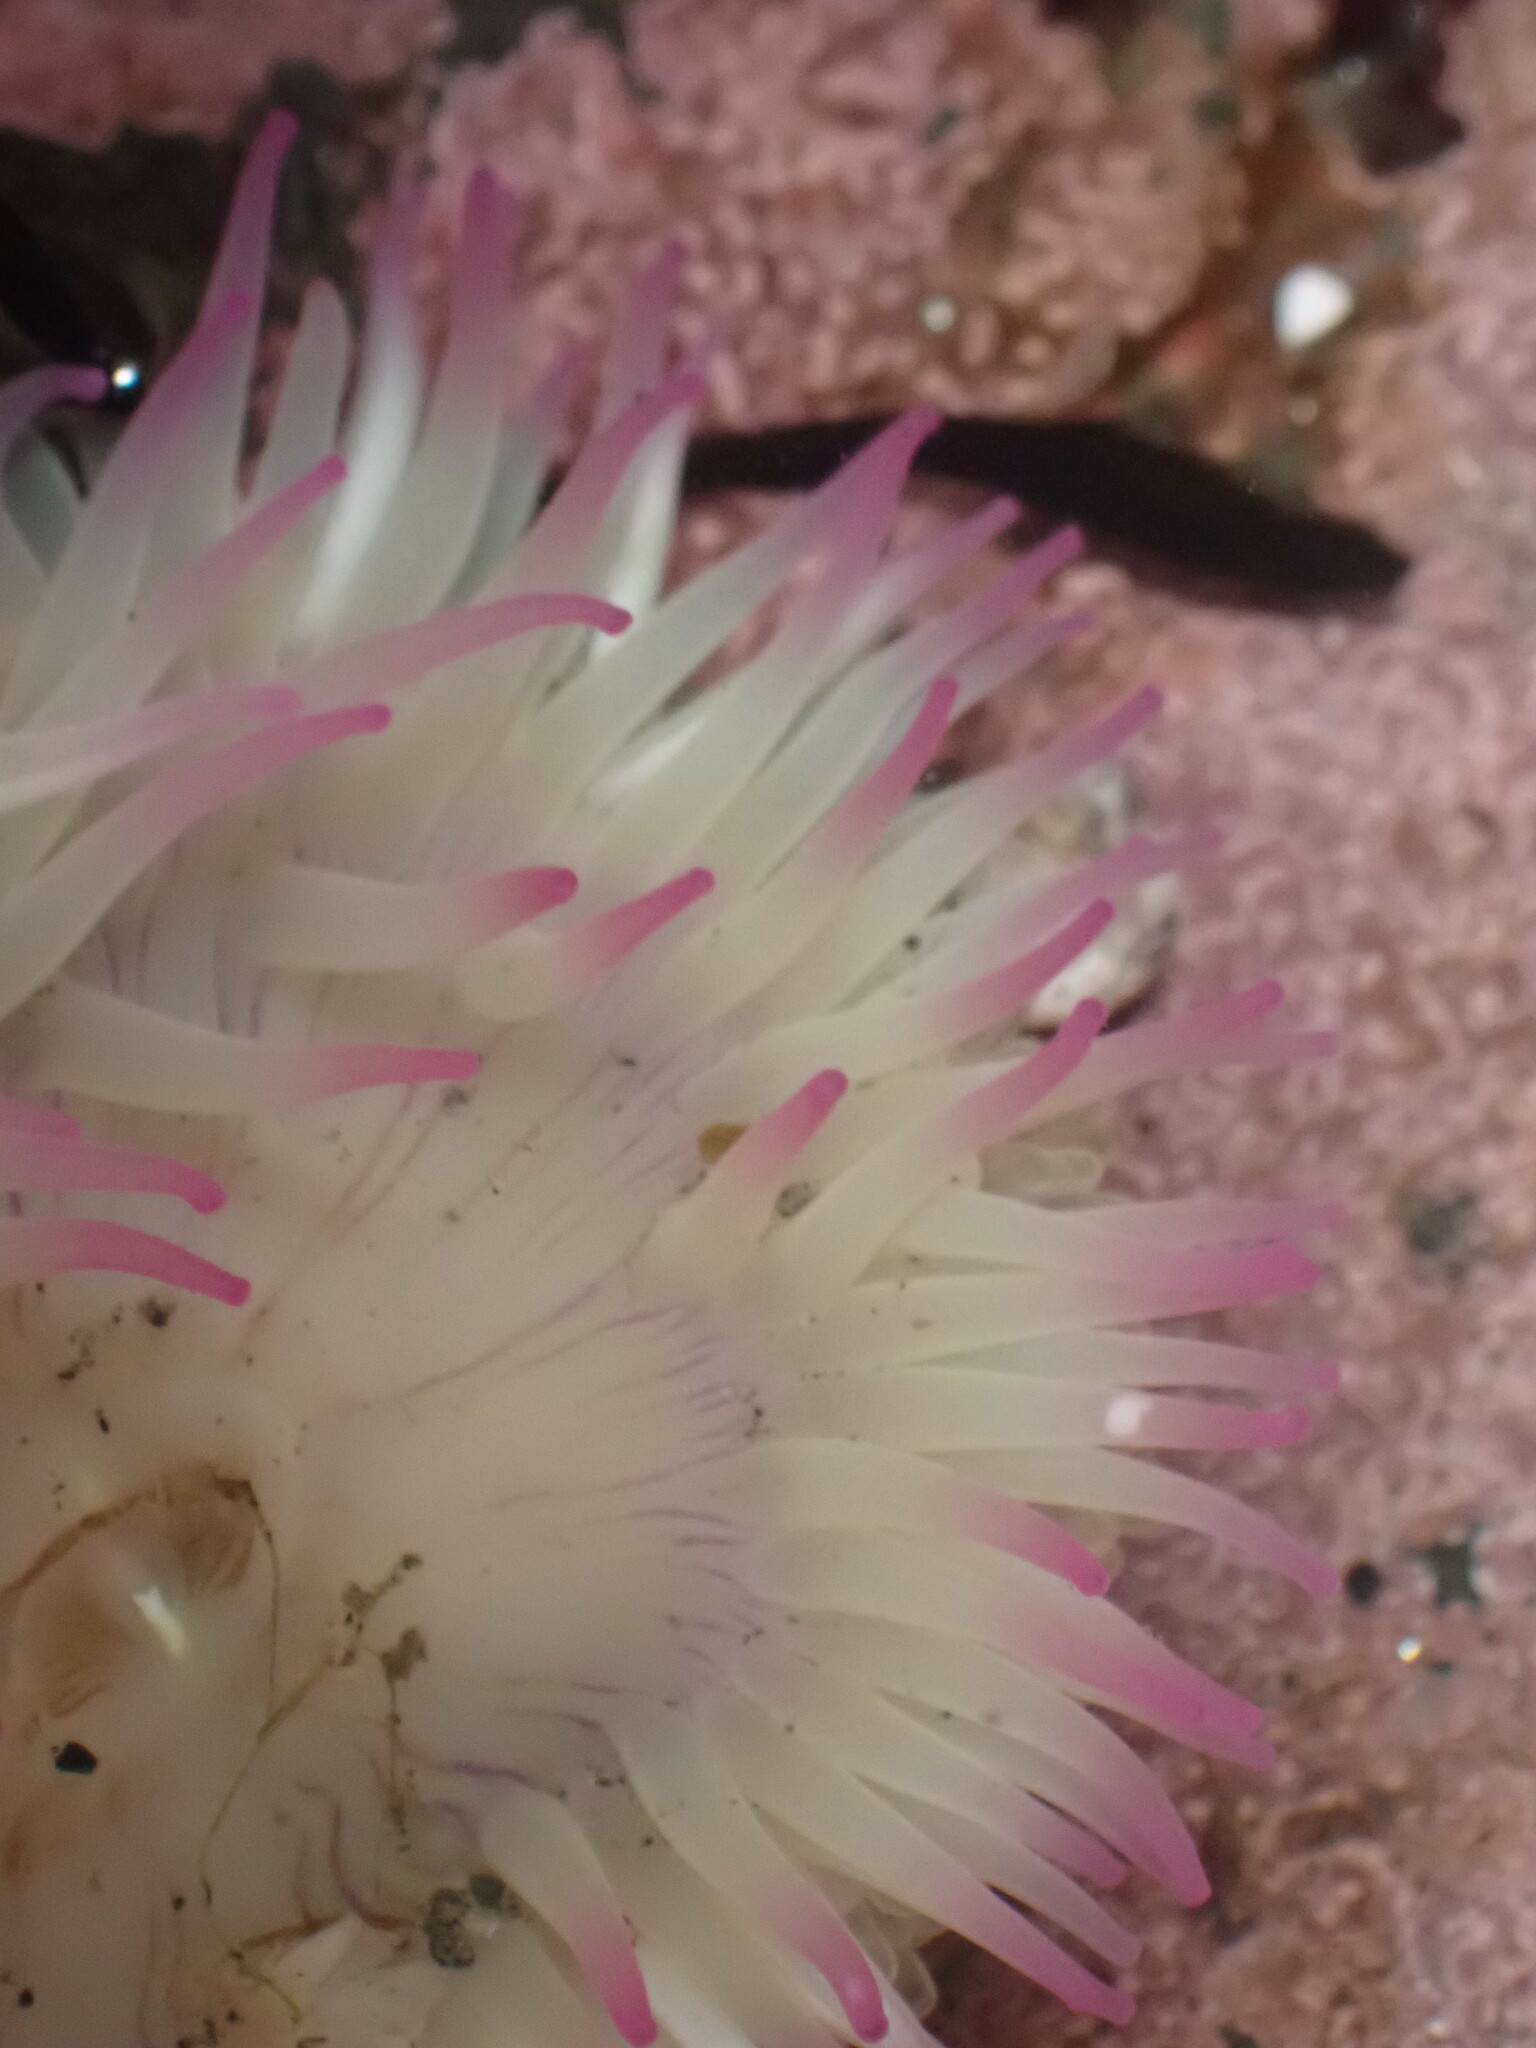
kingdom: Animalia
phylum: Cnidaria
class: Anthozoa
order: Actiniaria
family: Actiniidae
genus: Anthopleura
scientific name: Anthopleura elegantissima
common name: Clonal anemone
